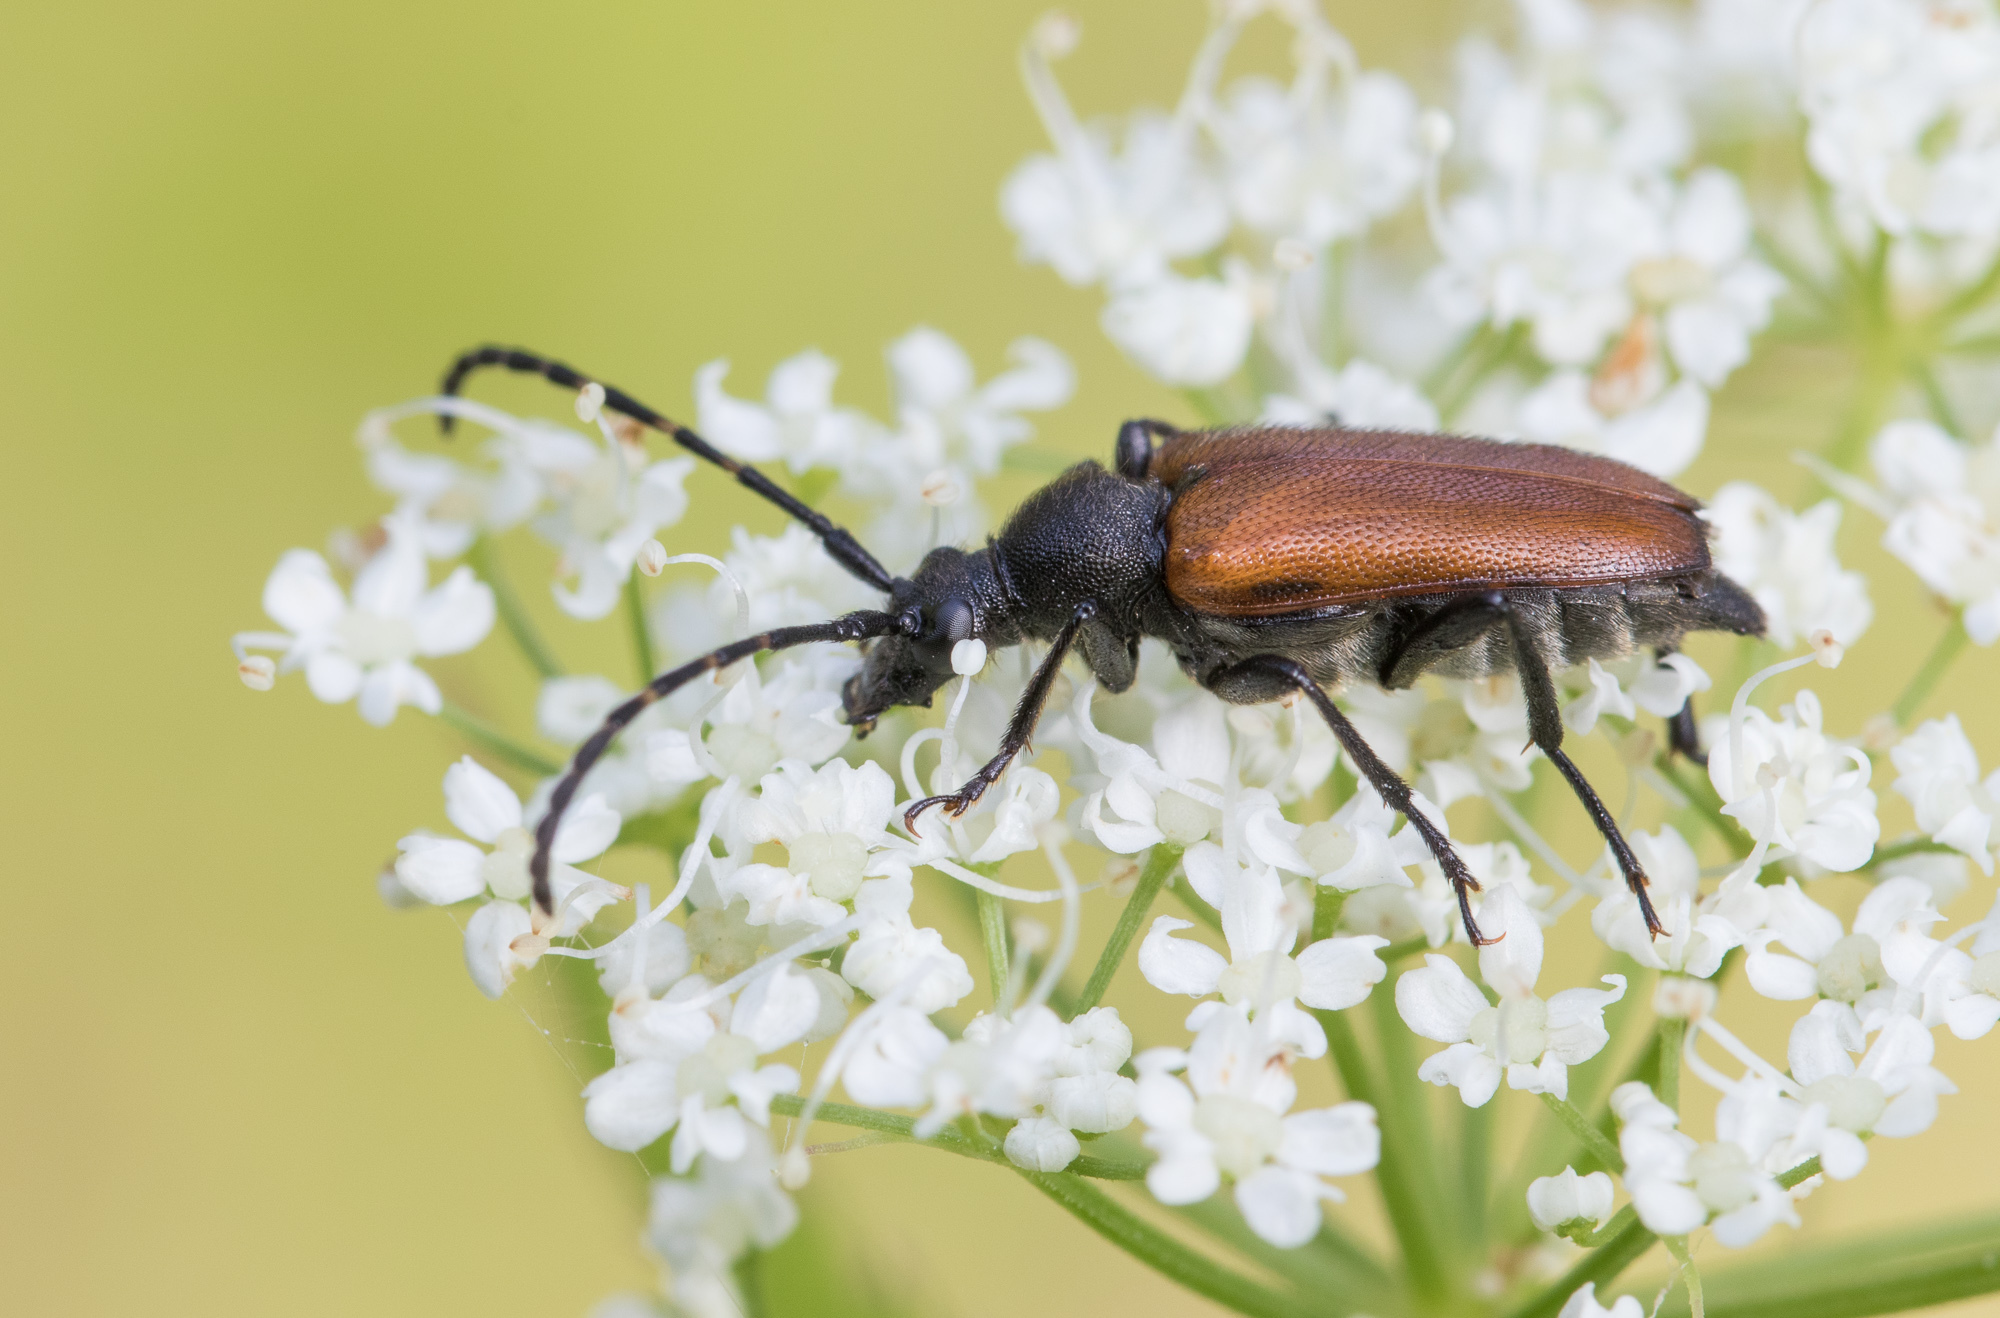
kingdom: Animalia
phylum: Arthropoda
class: Insecta
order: Coleoptera
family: Cerambycidae
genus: Paracorymbia
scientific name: Paracorymbia maculicornis
